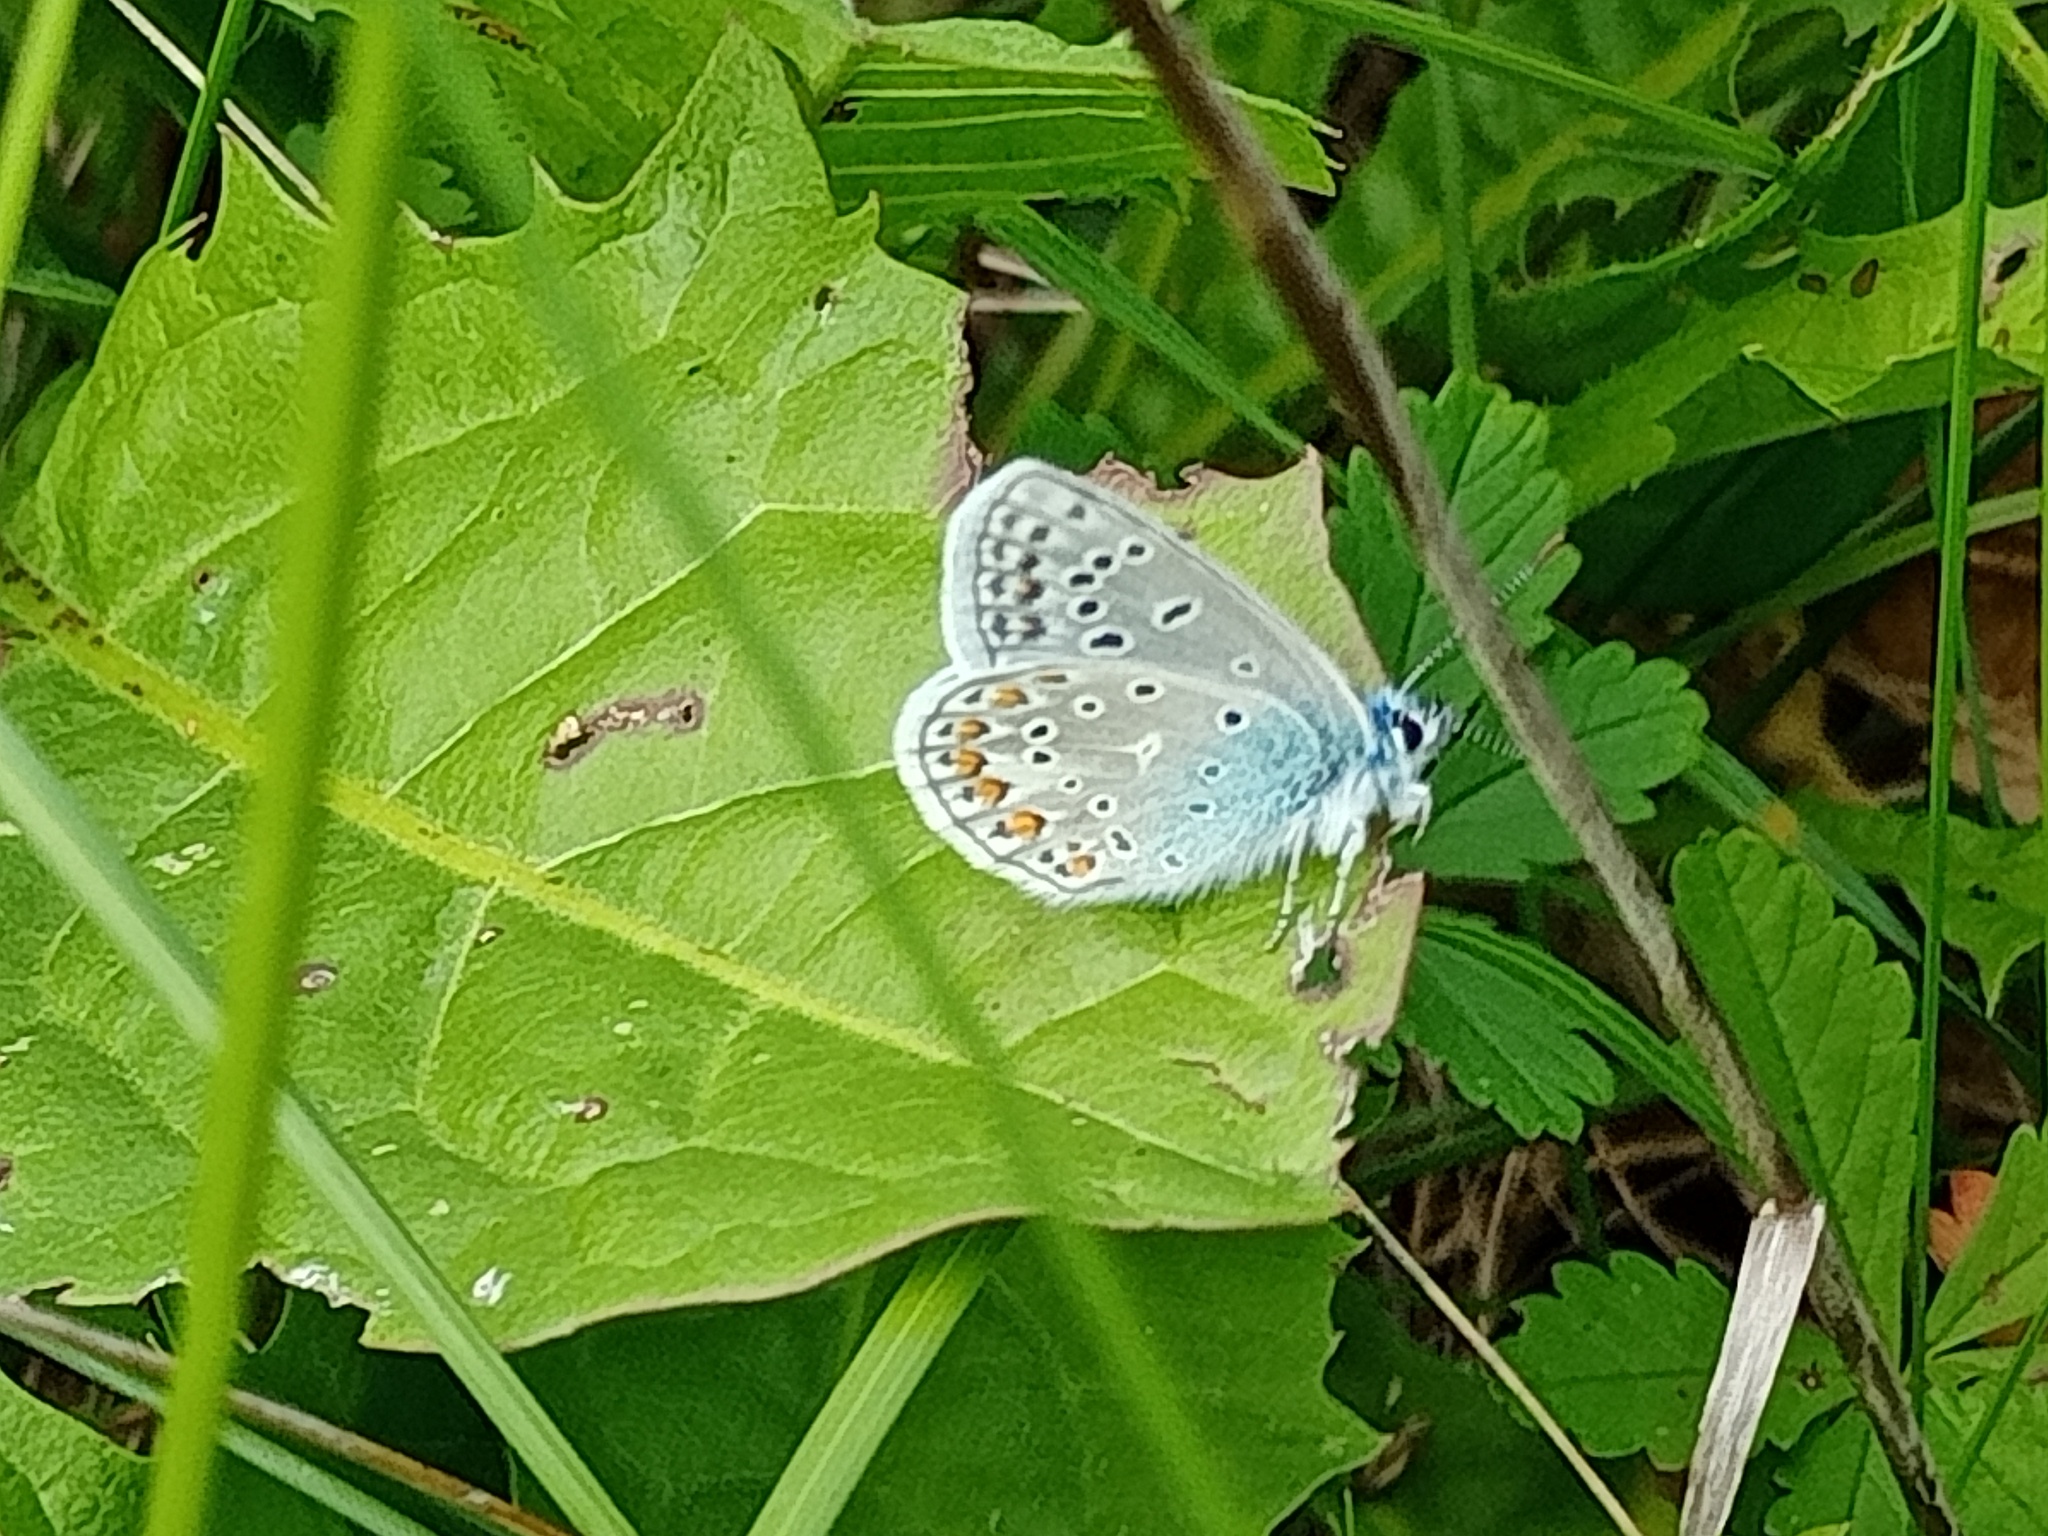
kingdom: Animalia
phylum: Arthropoda
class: Insecta
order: Lepidoptera
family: Lycaenidae
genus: Polyommatus
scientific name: Polyommatus icarus
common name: Common blue
